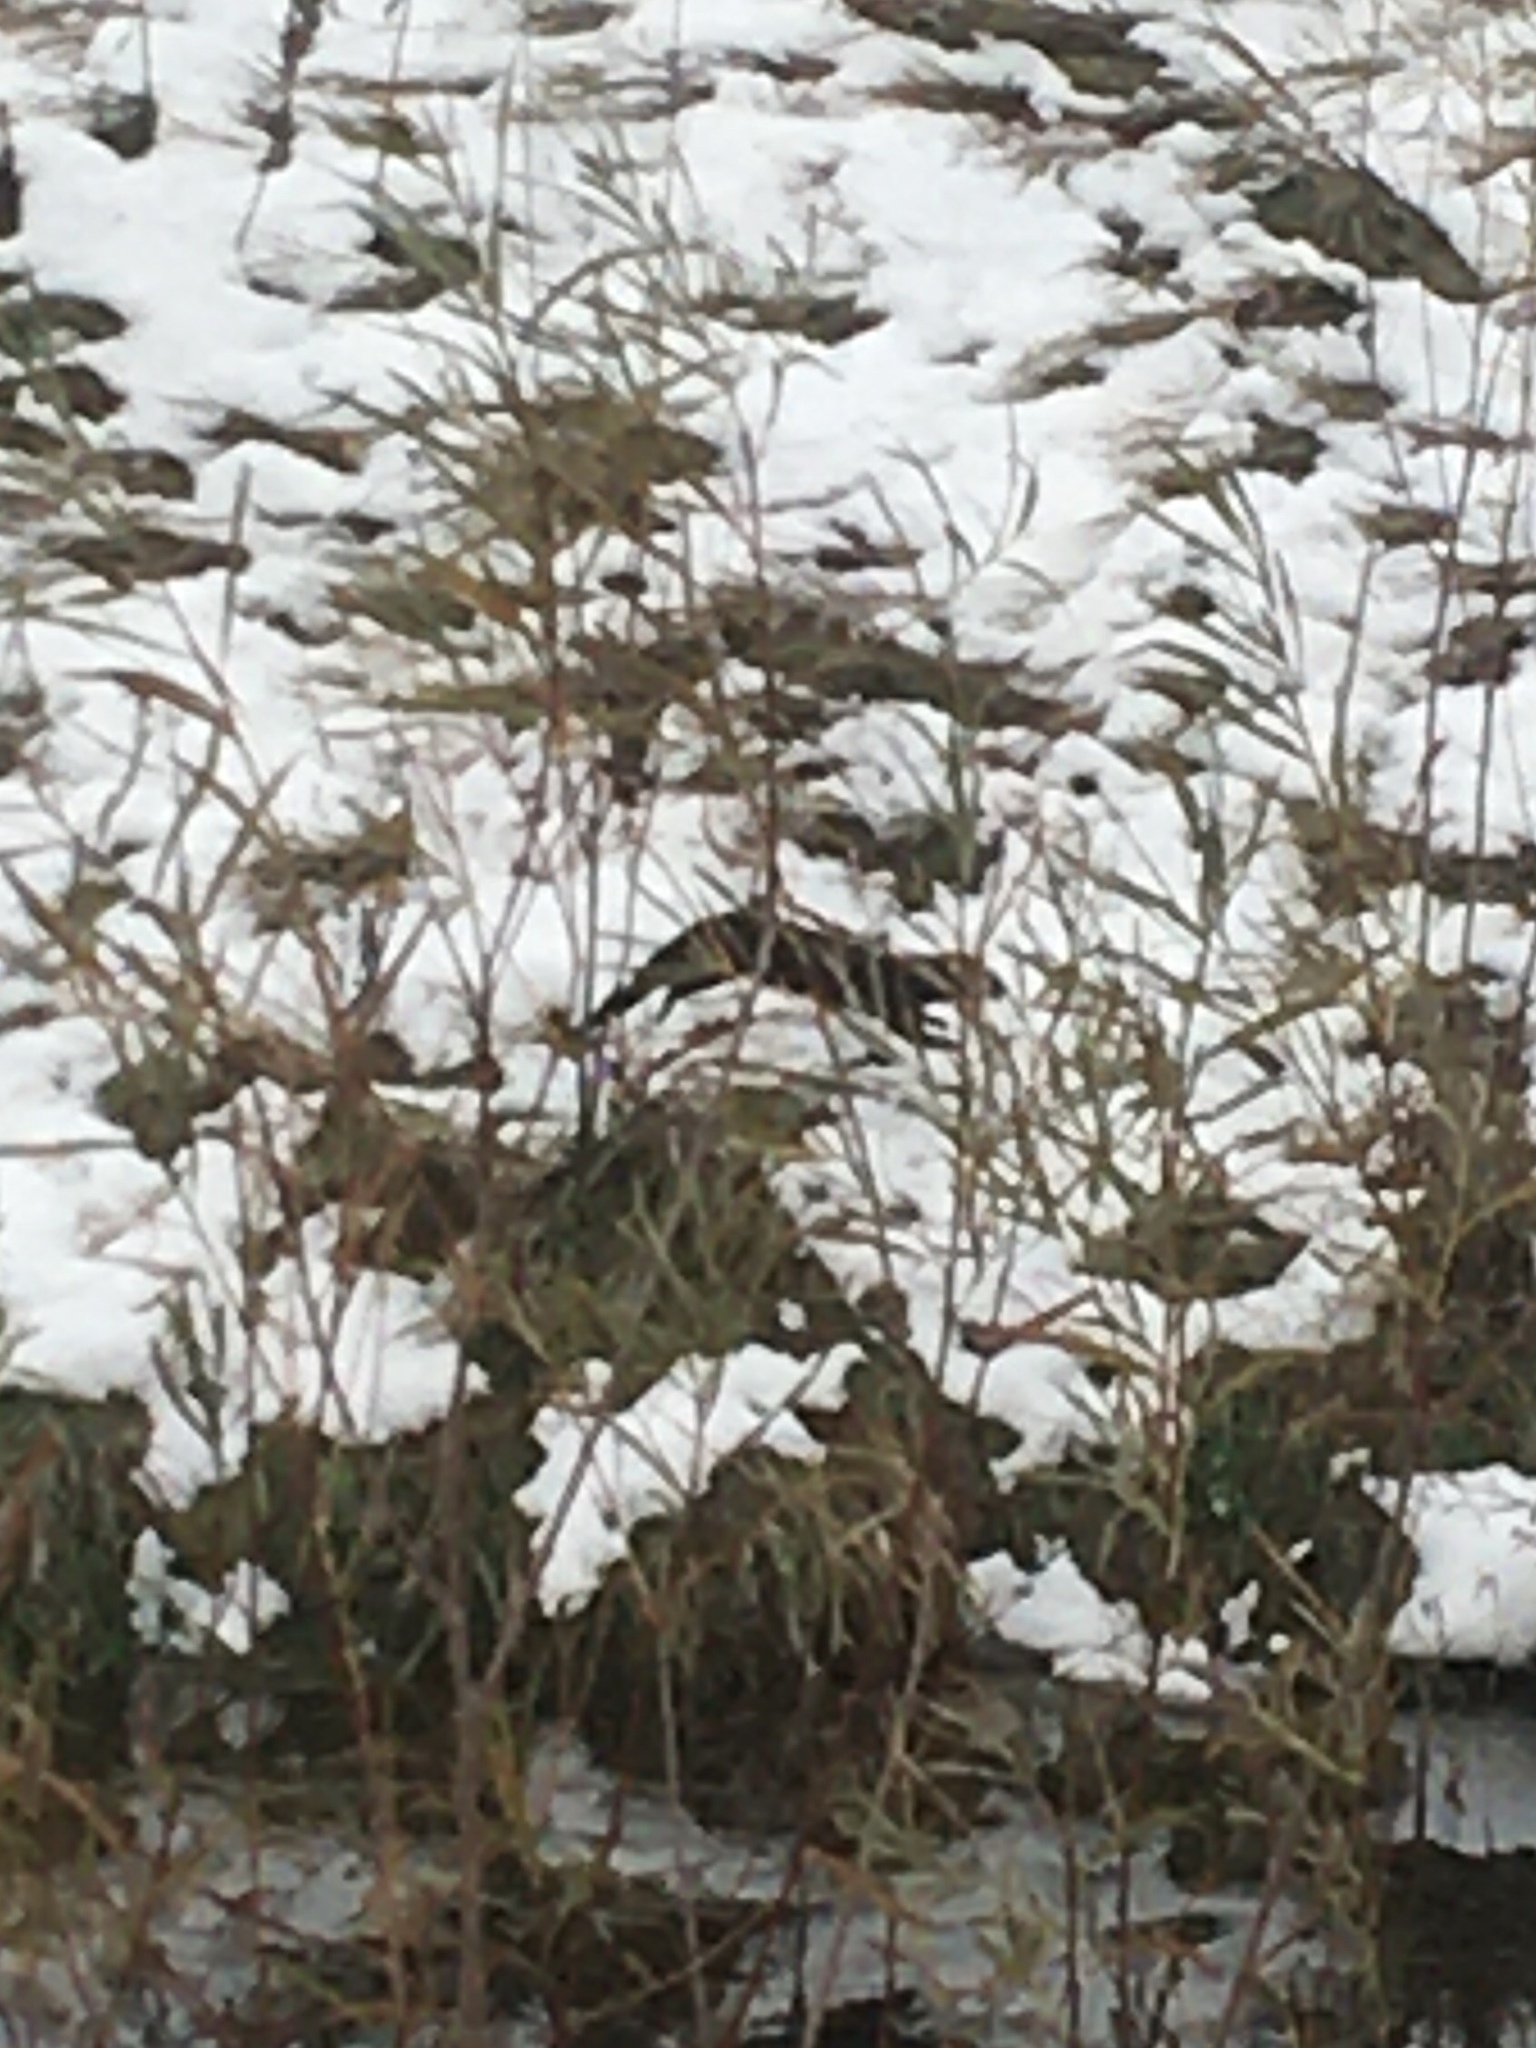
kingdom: Animalia
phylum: Chordata
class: Mammalia
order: Carnivora
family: Mustelidae
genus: Mustela
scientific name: Mustela
